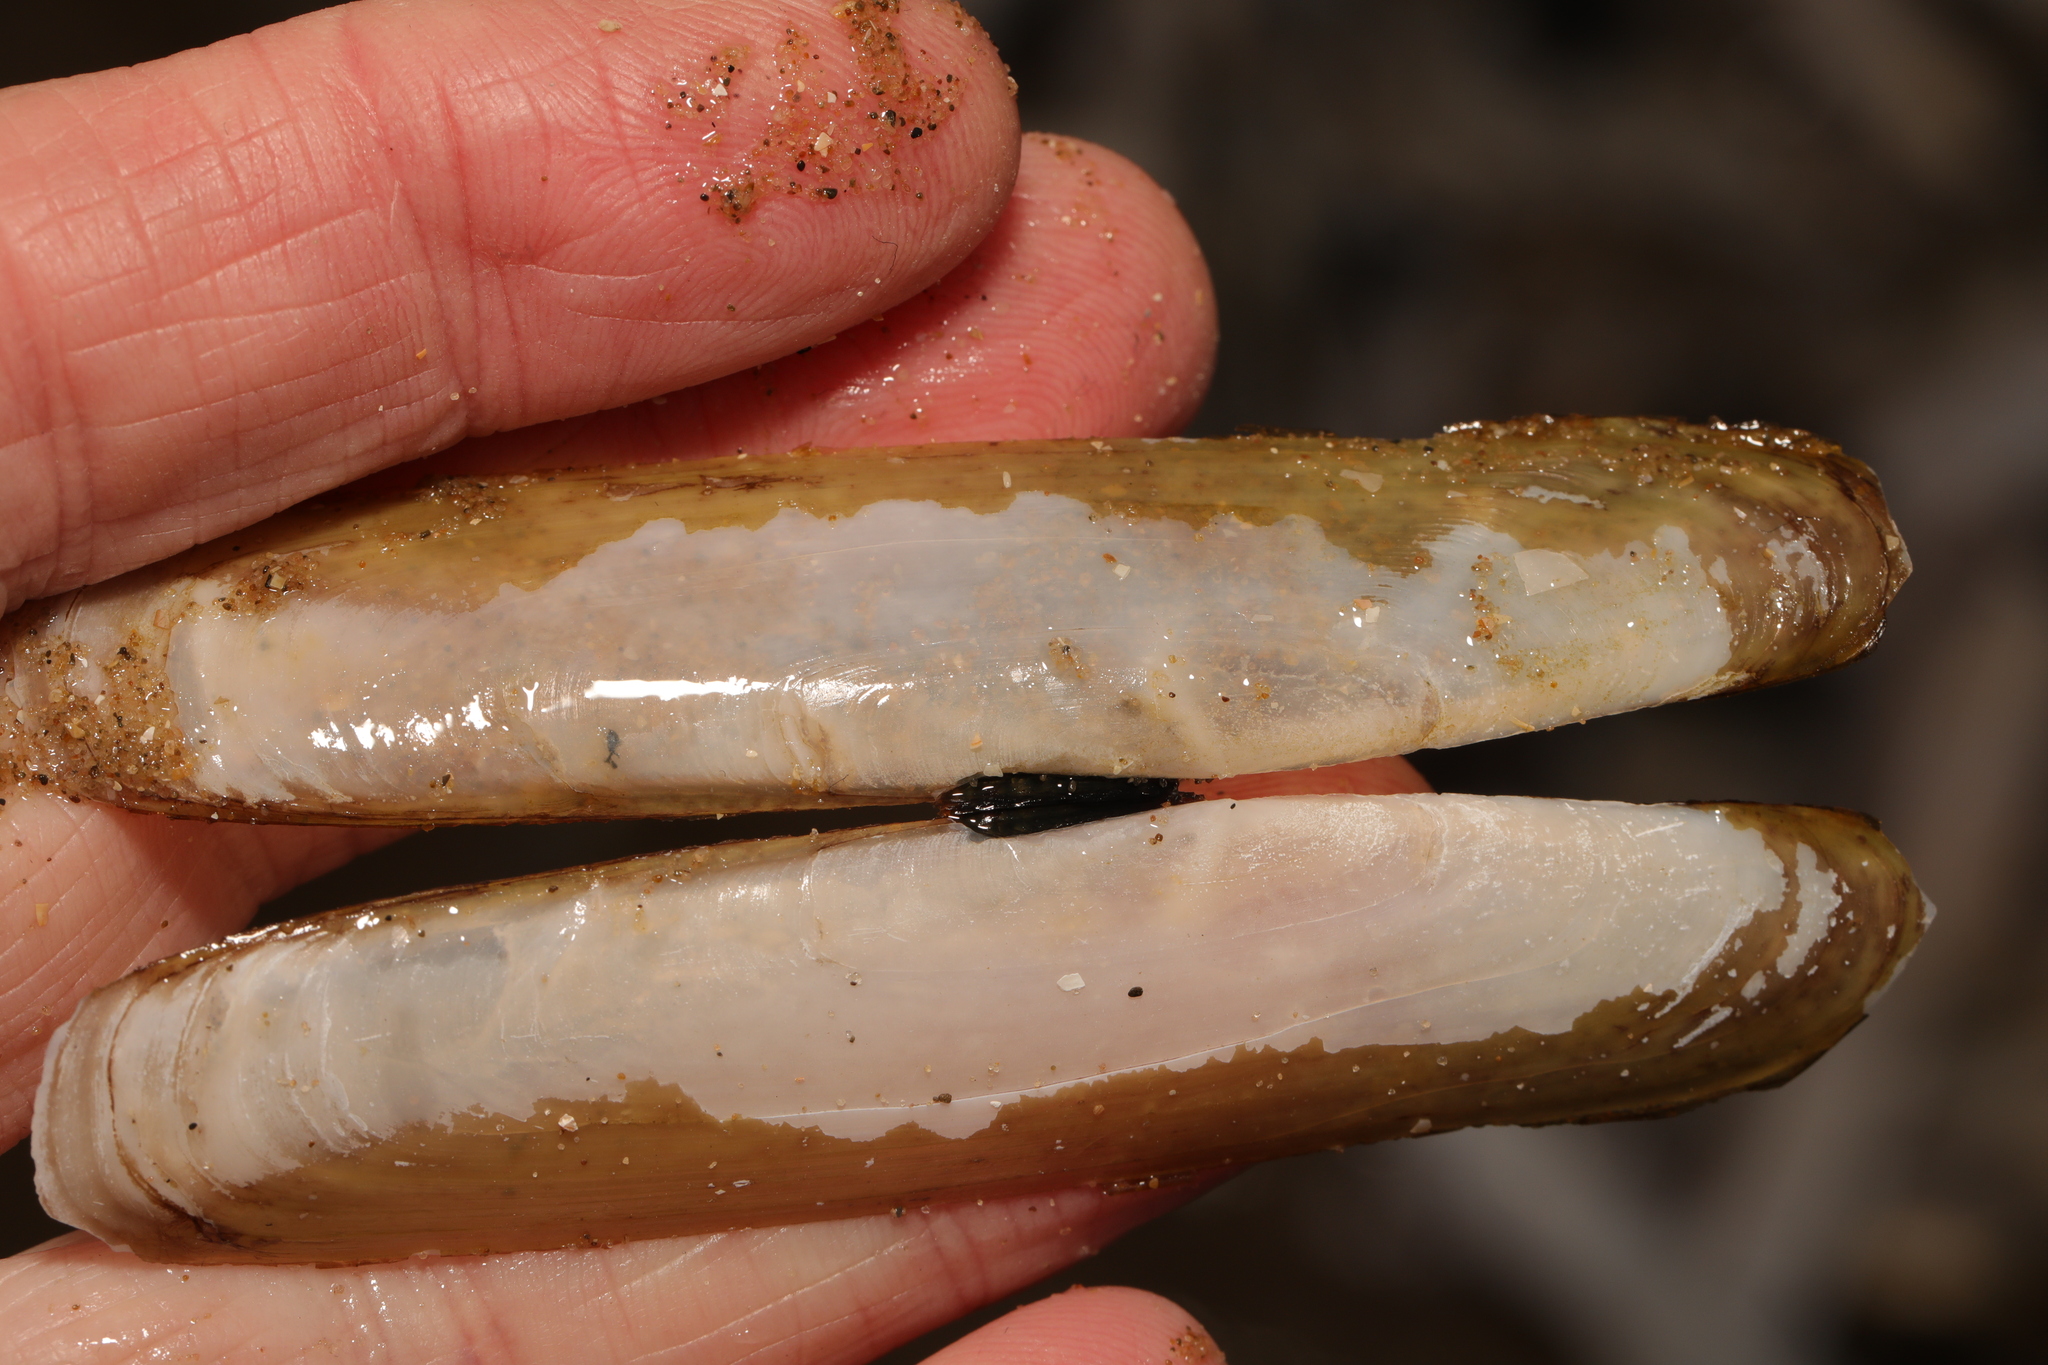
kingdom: Animalia
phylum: Mollusca
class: Bivalvia
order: Adapedonta
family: Pharidae
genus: Pharus
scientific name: Pharus legumen
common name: Bean razor clam
